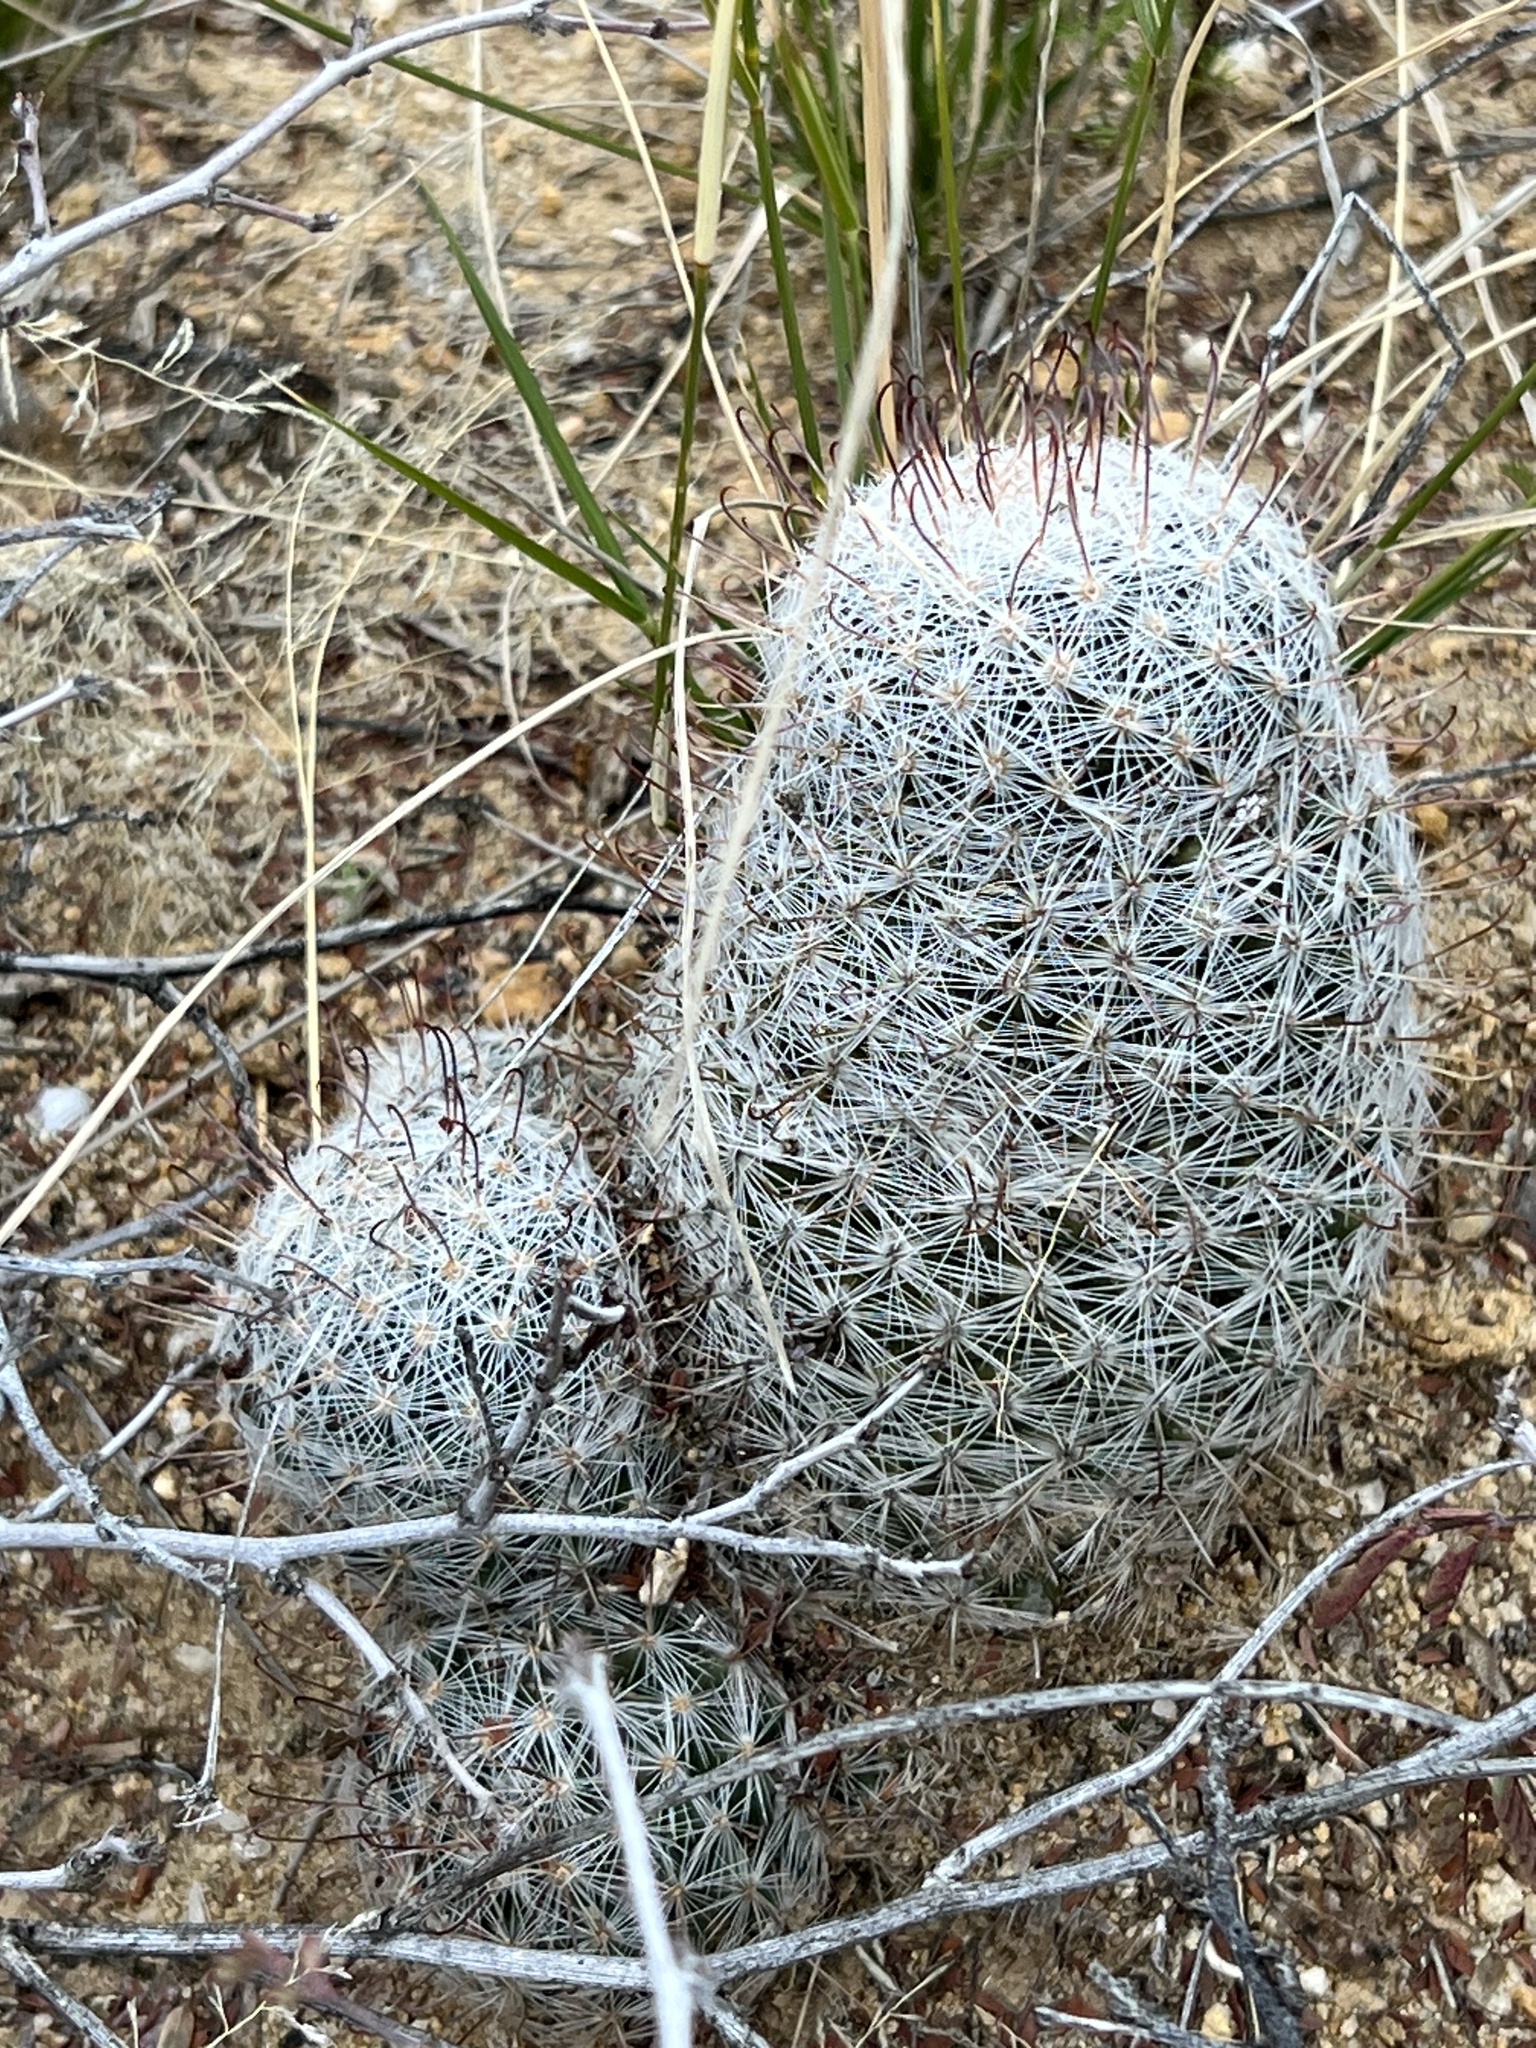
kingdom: Plantae
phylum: Tracheophyta
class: Magnoliopsida
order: Caryophyllales
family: Cactaceae
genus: Cochemiea
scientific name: Cochemiea grahamii
